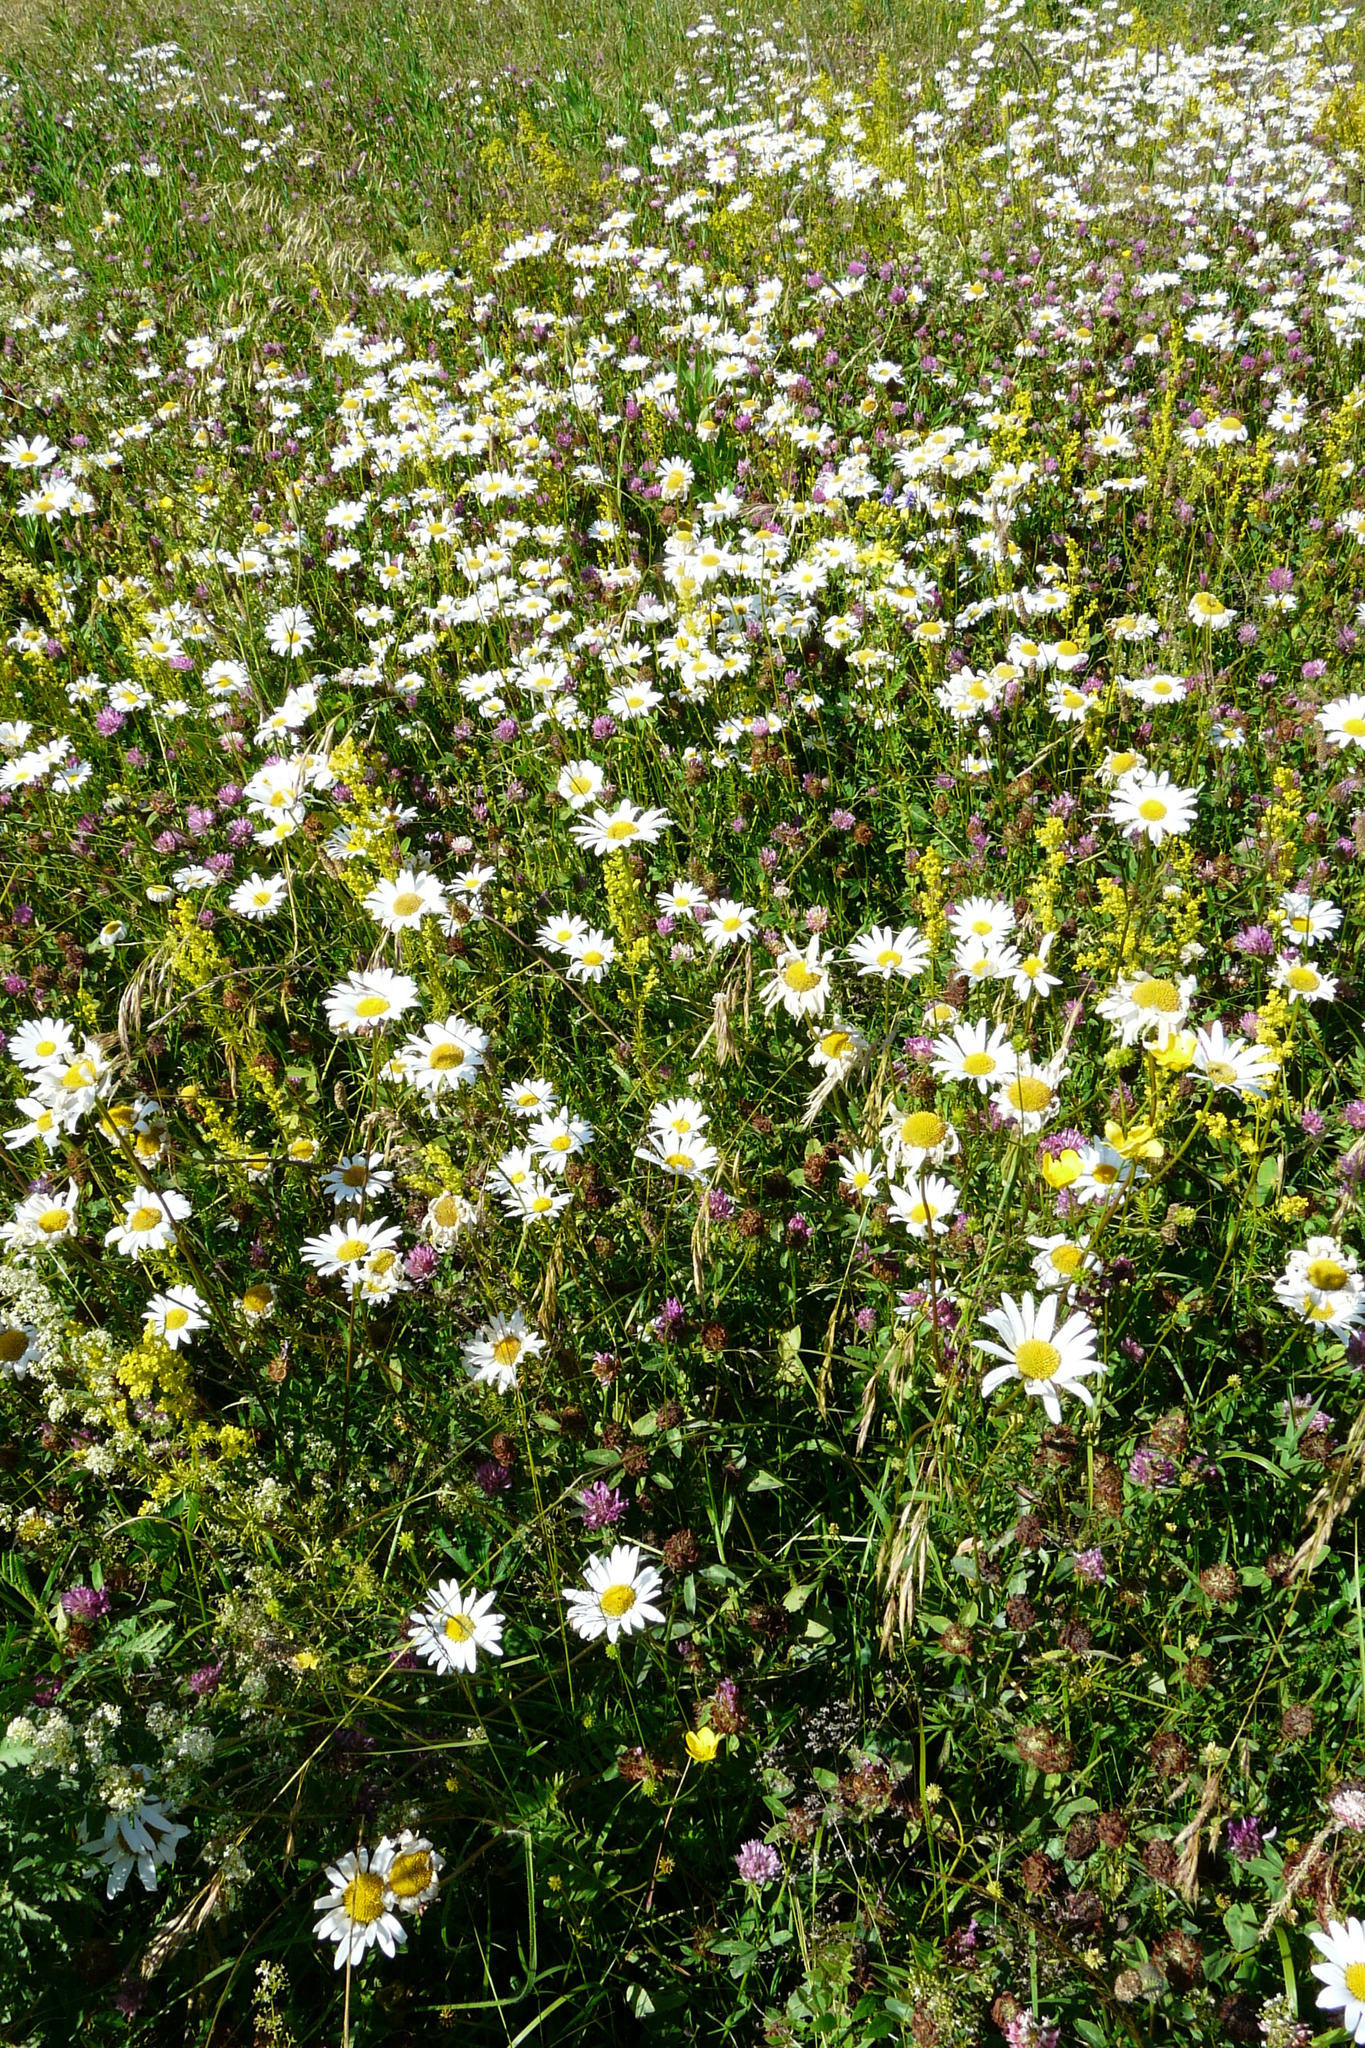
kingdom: Plantae
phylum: Tracheophyta
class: Magnoliopsida
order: Asterales
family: Asteraceae
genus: Leucanthemum
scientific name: Leucanthemum vulgare
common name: Oxeye daisy
